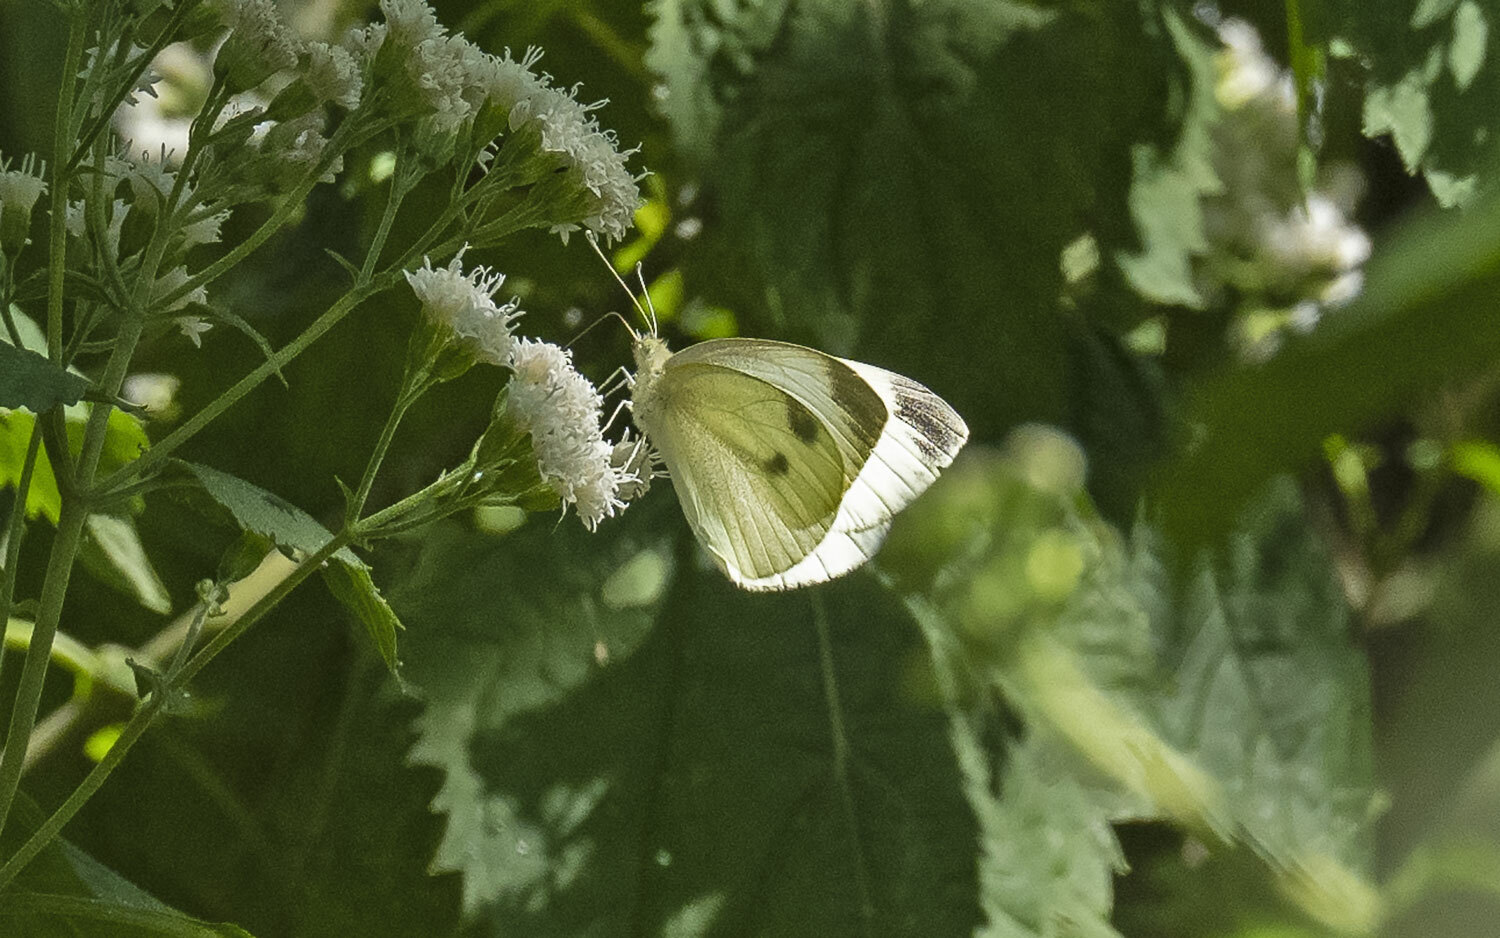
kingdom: Animalia
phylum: Arthropoda
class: Insecta
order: Lepidoptera
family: Pieridae
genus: Pieris
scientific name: Pieris rapae
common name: Small white
